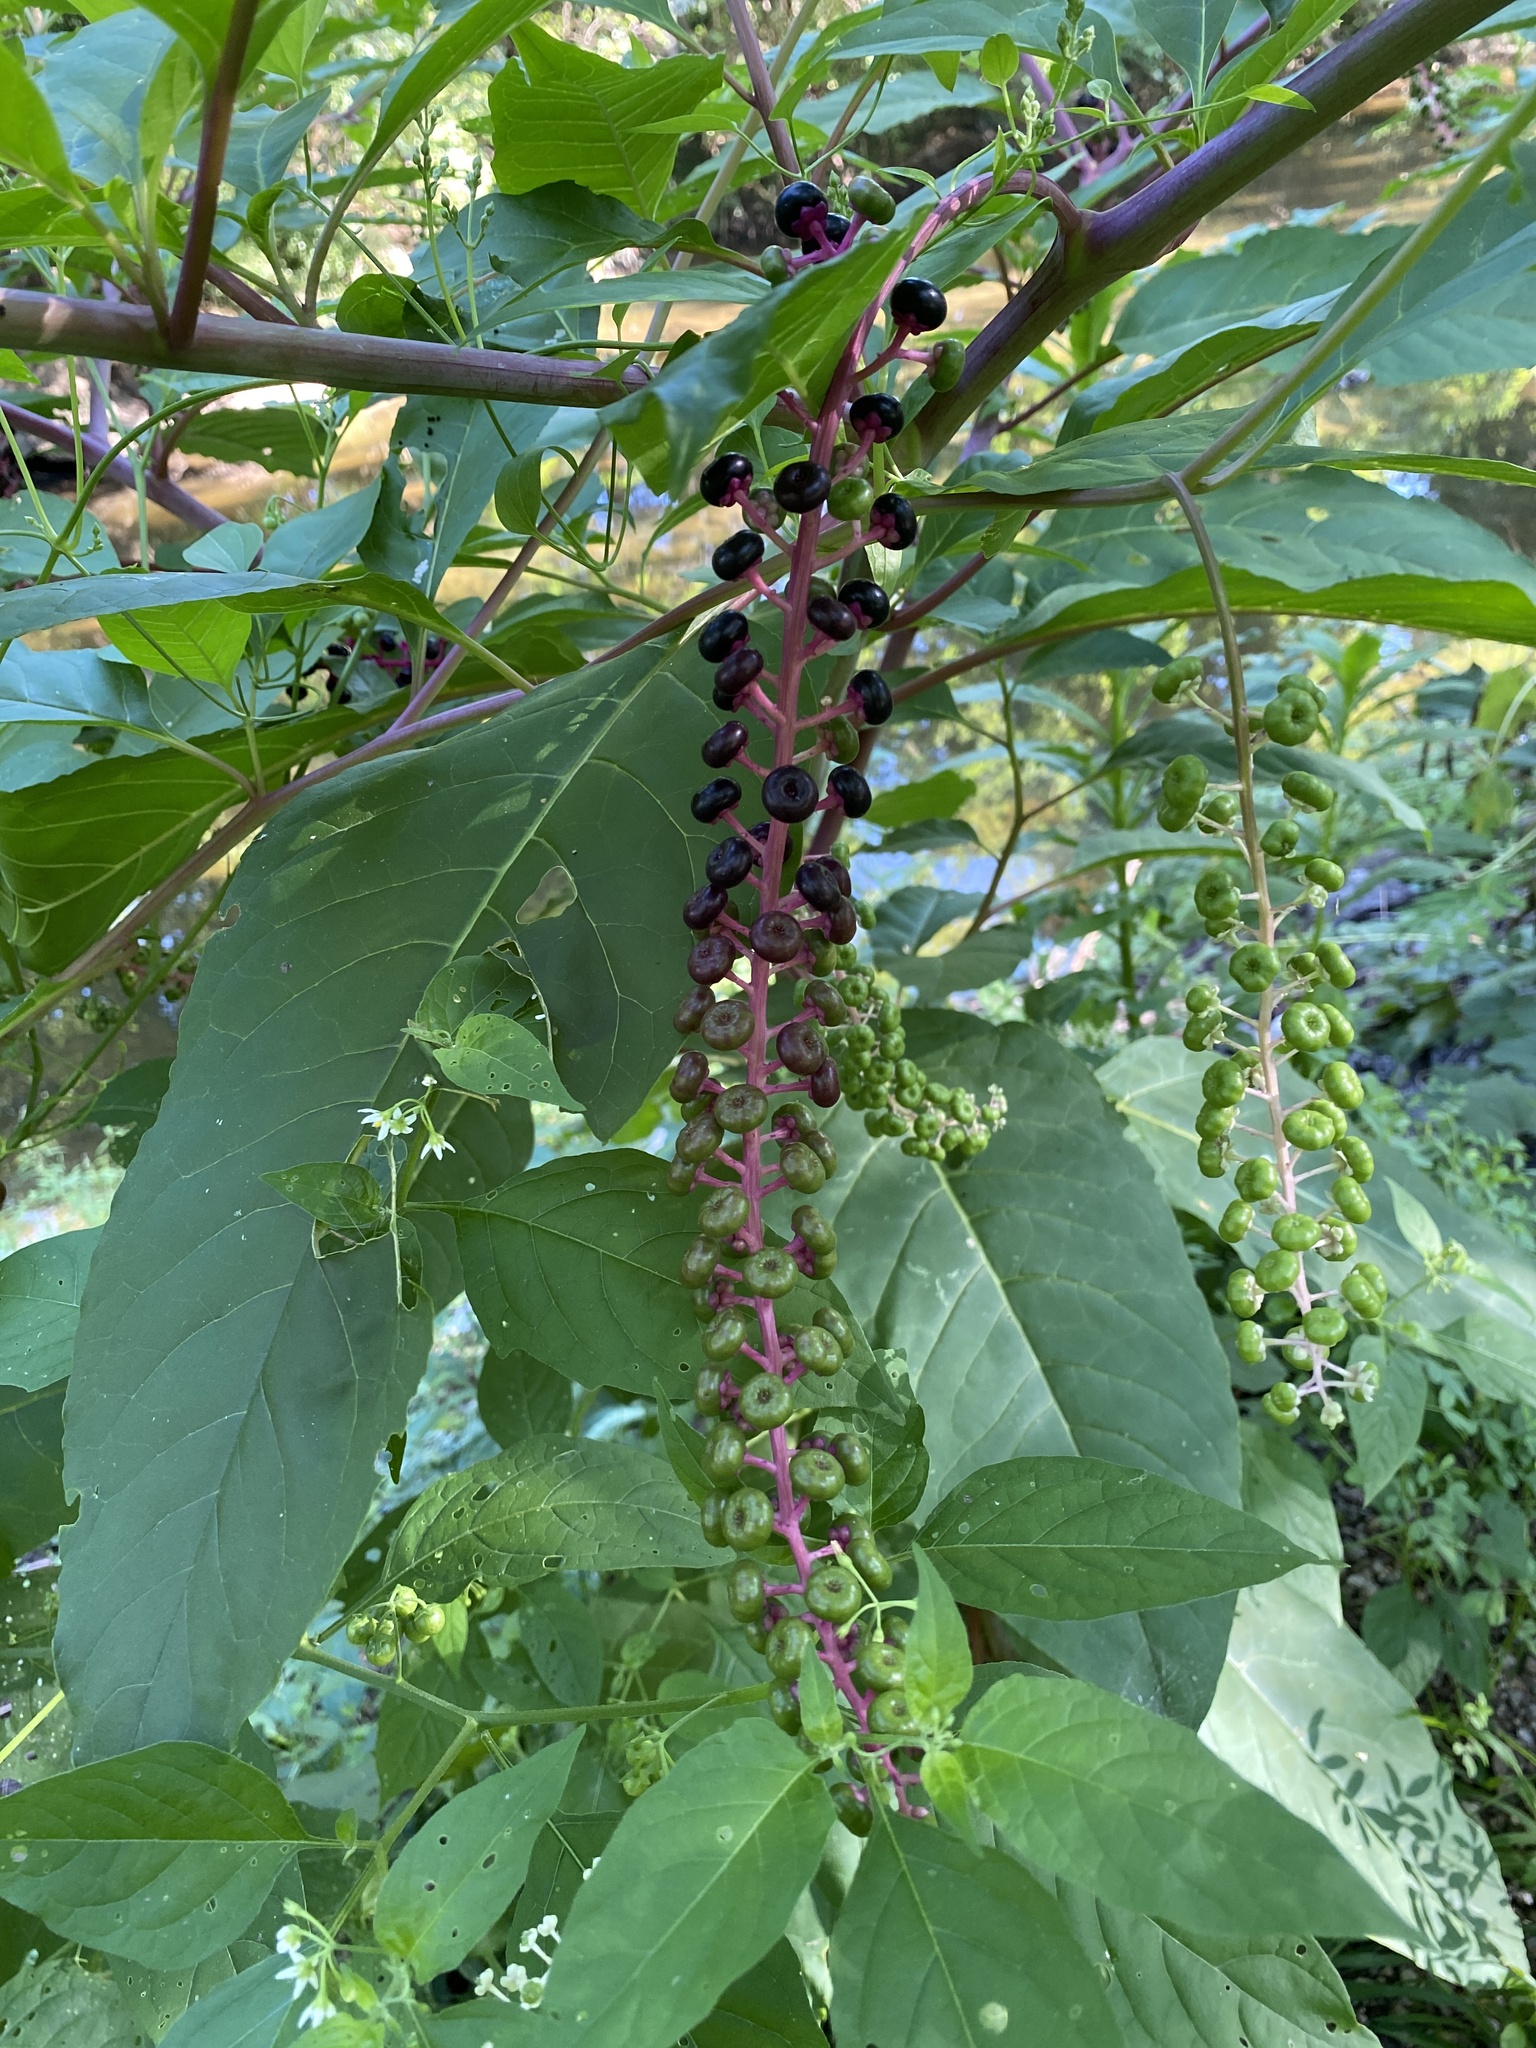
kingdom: Plantae
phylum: Tracheophyta
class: Magnoliopsida
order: Caryophyllales
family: Phytolaccaceae
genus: Phytolacca
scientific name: Phytolacca americana
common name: American pokeweed
